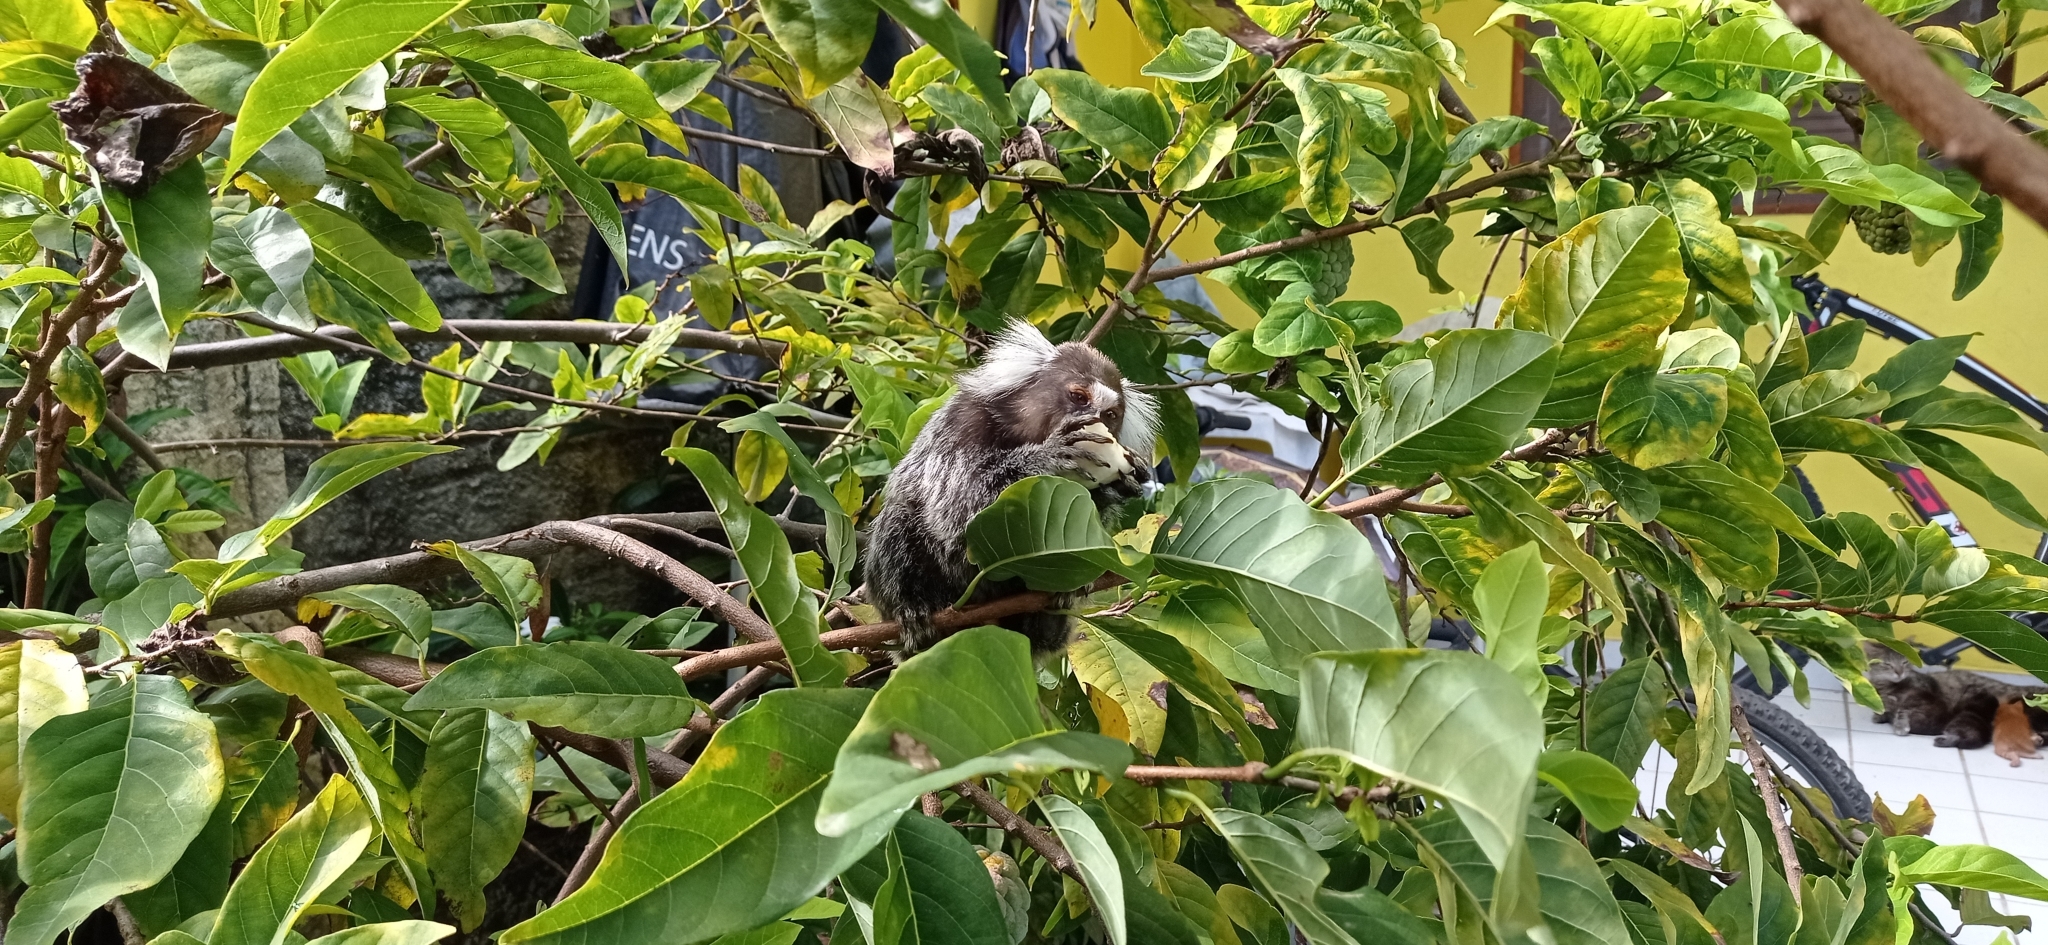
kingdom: Animalia
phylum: Chordata
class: Mammalia
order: Primates
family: Callitrichidae
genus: Callithrix
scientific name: Callithrix jacchus
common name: Common marmoset
